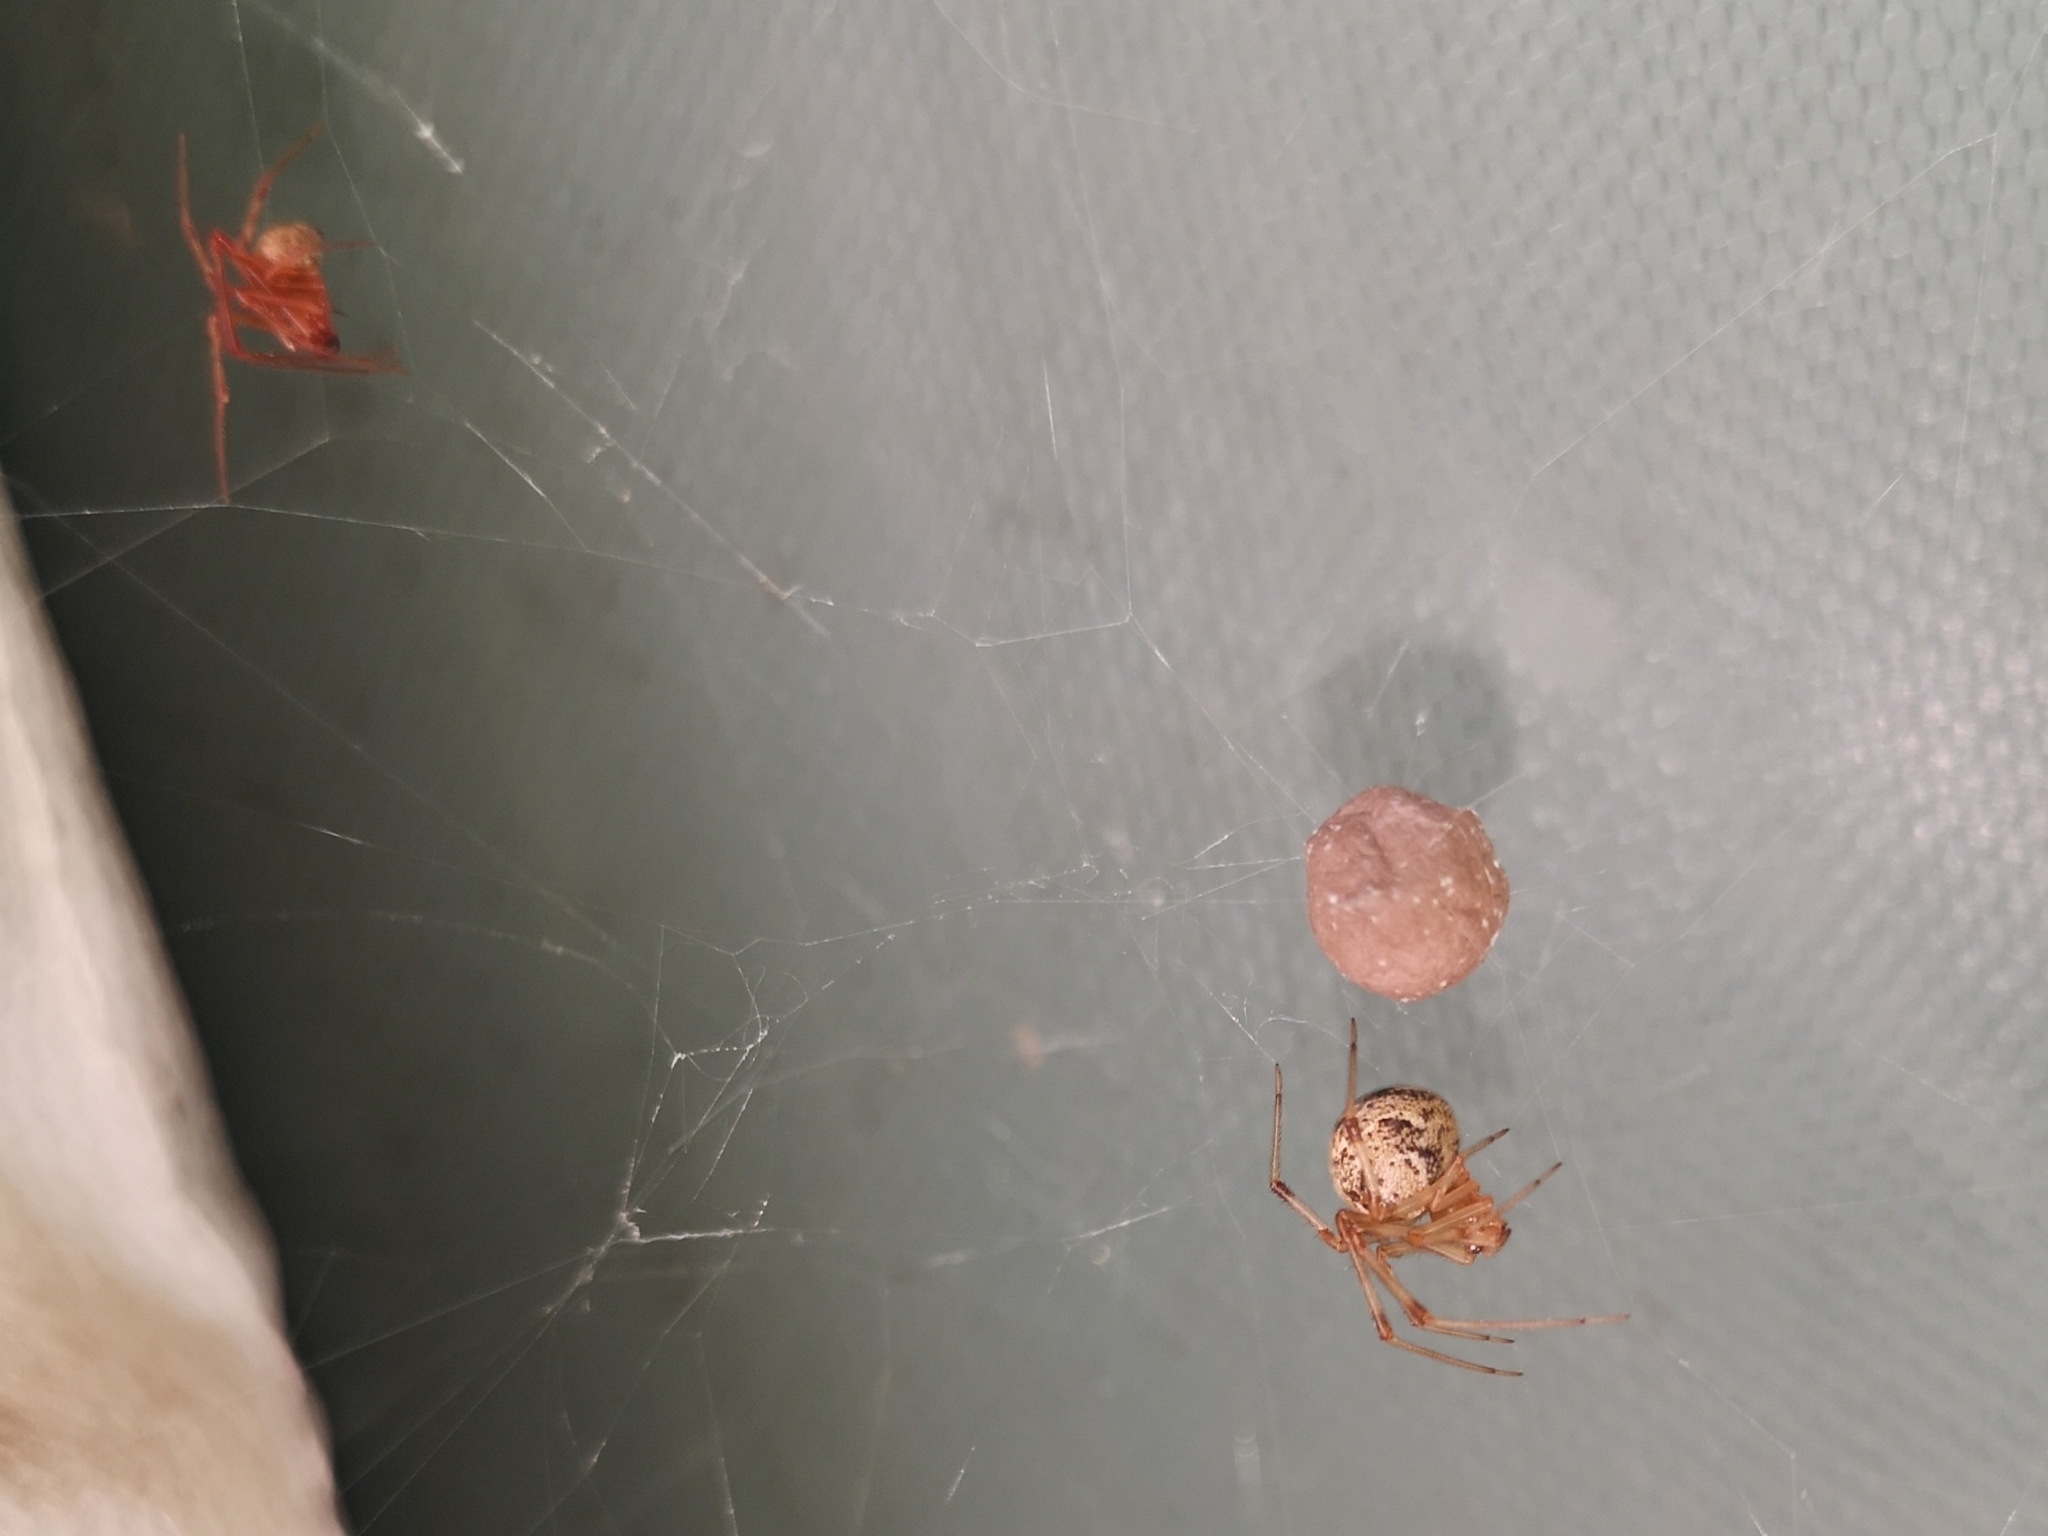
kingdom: Animalia
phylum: Arthropoda
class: Arachnida
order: Araneae
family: Theridiidae
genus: Parasteatoda
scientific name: Parasteatoda tepidariorum
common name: Common house spider
